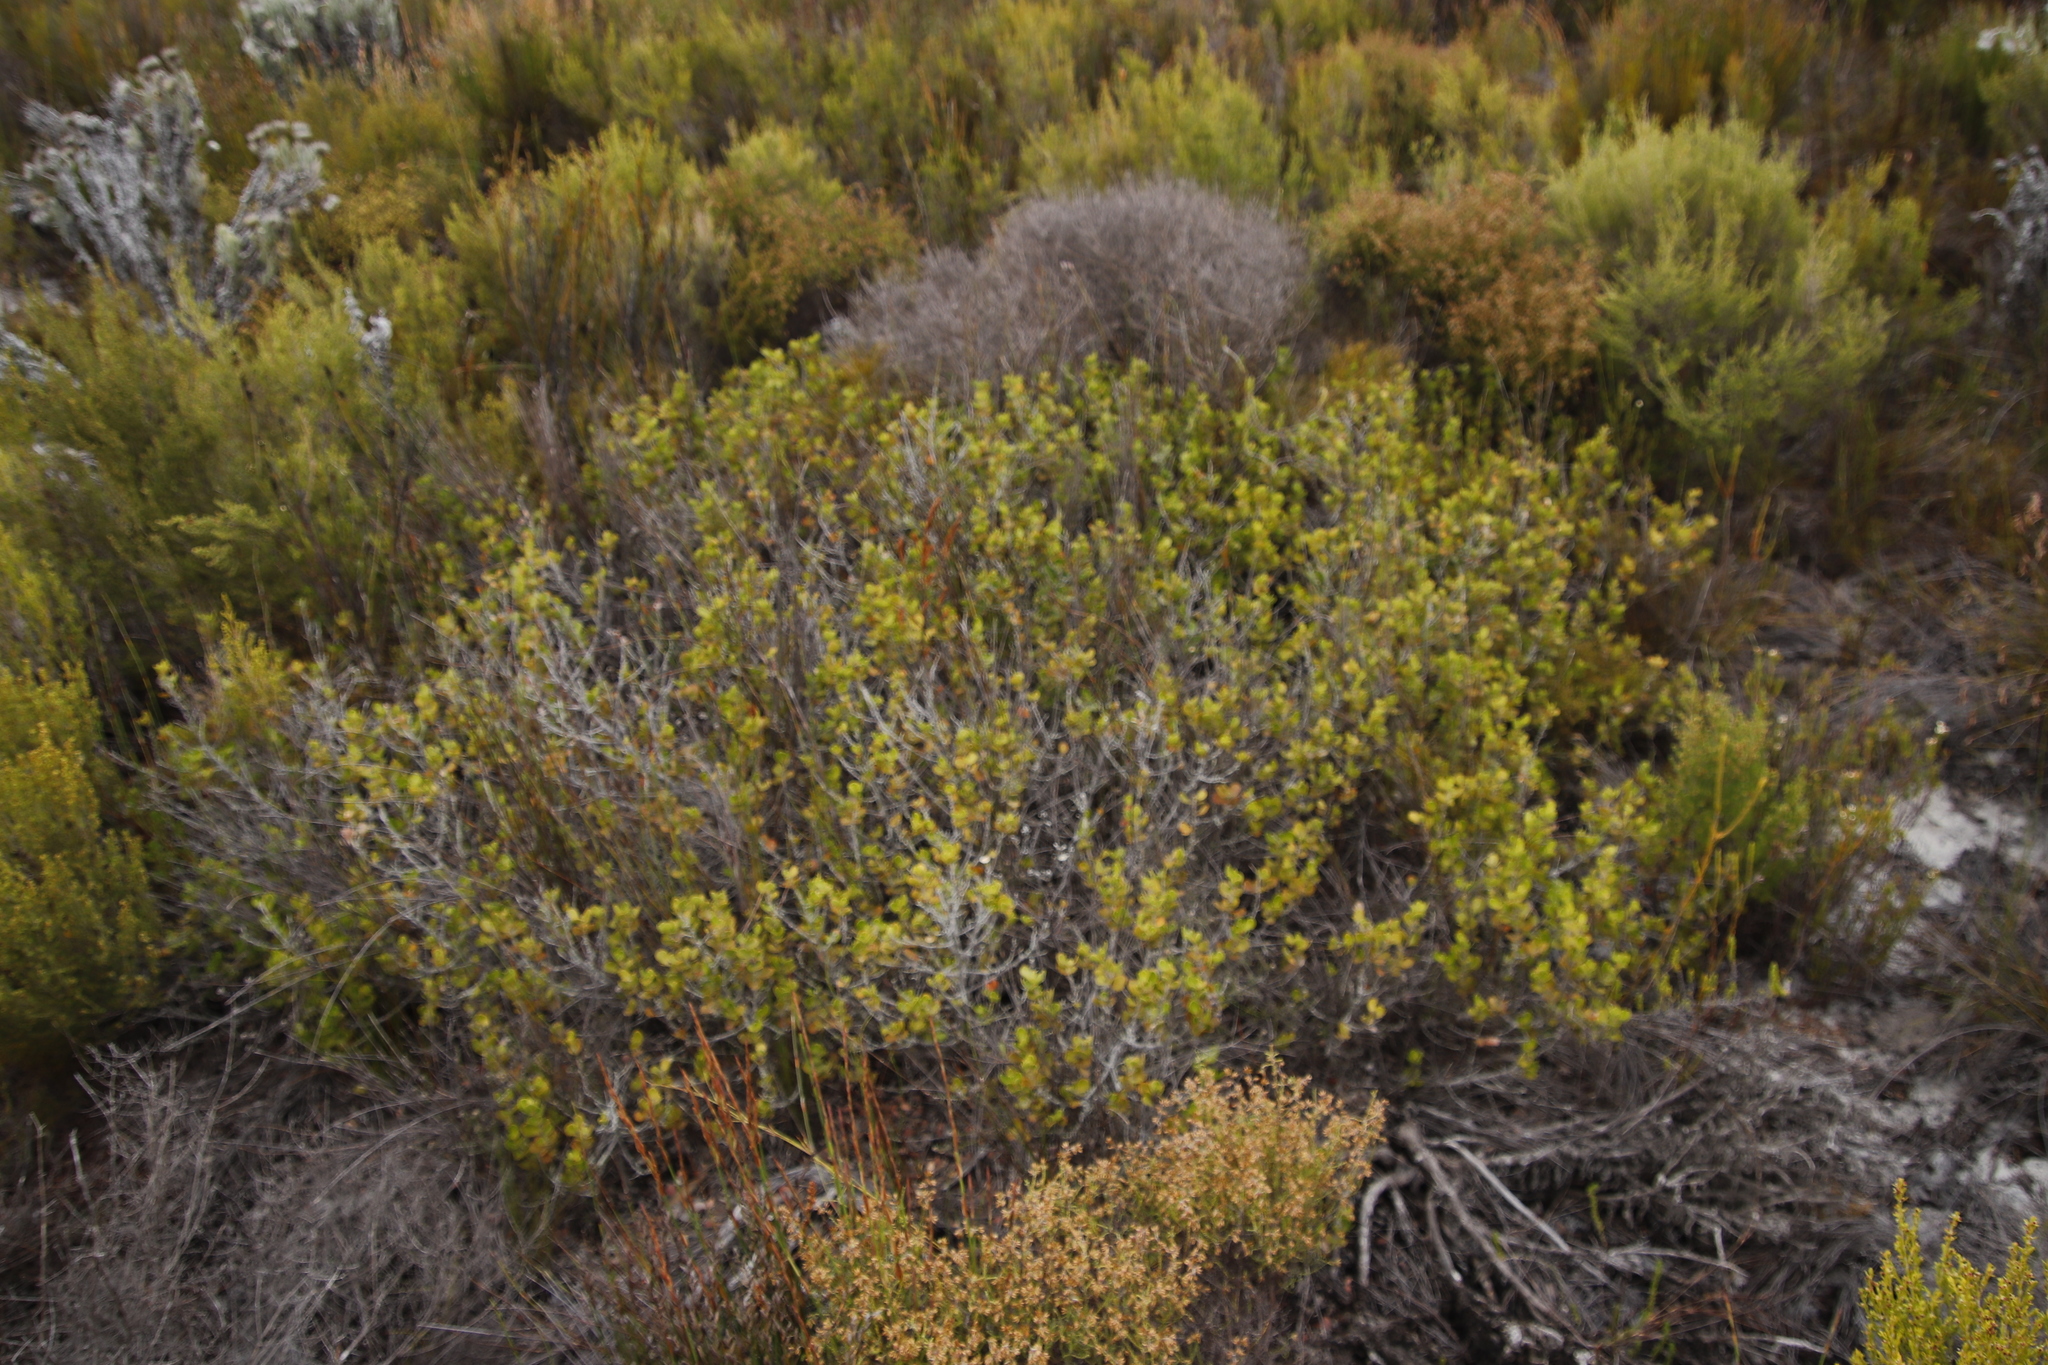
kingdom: Plantae
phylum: Tracheophyta
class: Magnoliopsida
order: Sapindales
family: Anacardiaceae
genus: Searsia
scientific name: Searsia lucida
